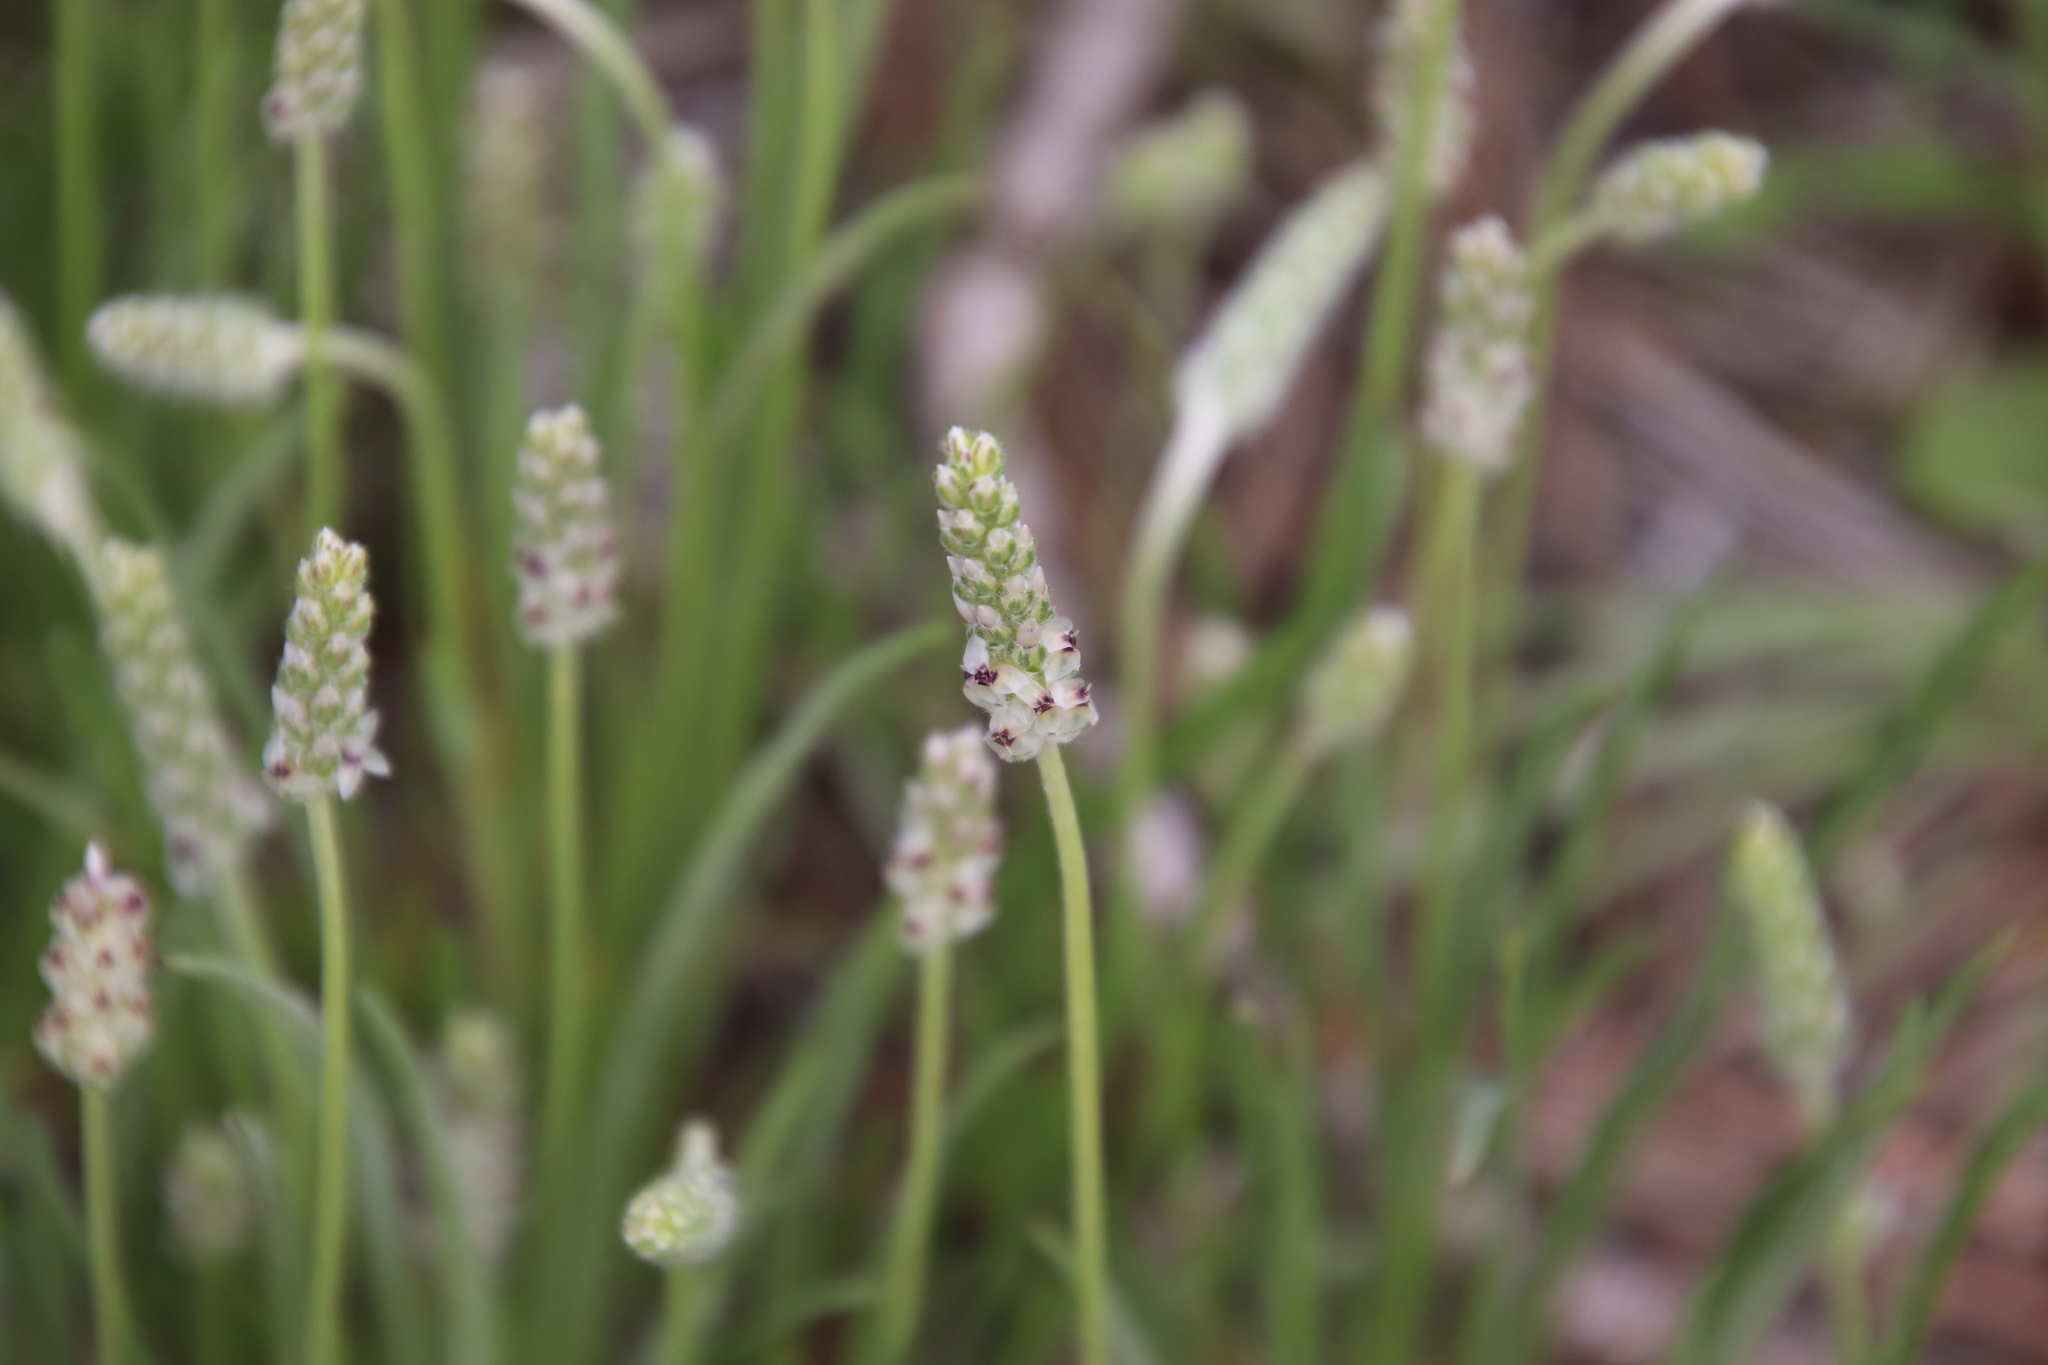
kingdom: Plantae
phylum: Tracheophyta
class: Magnoliopsida
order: Lamiales
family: Plantaginaceae
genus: Plantago
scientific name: Plantago erecta
